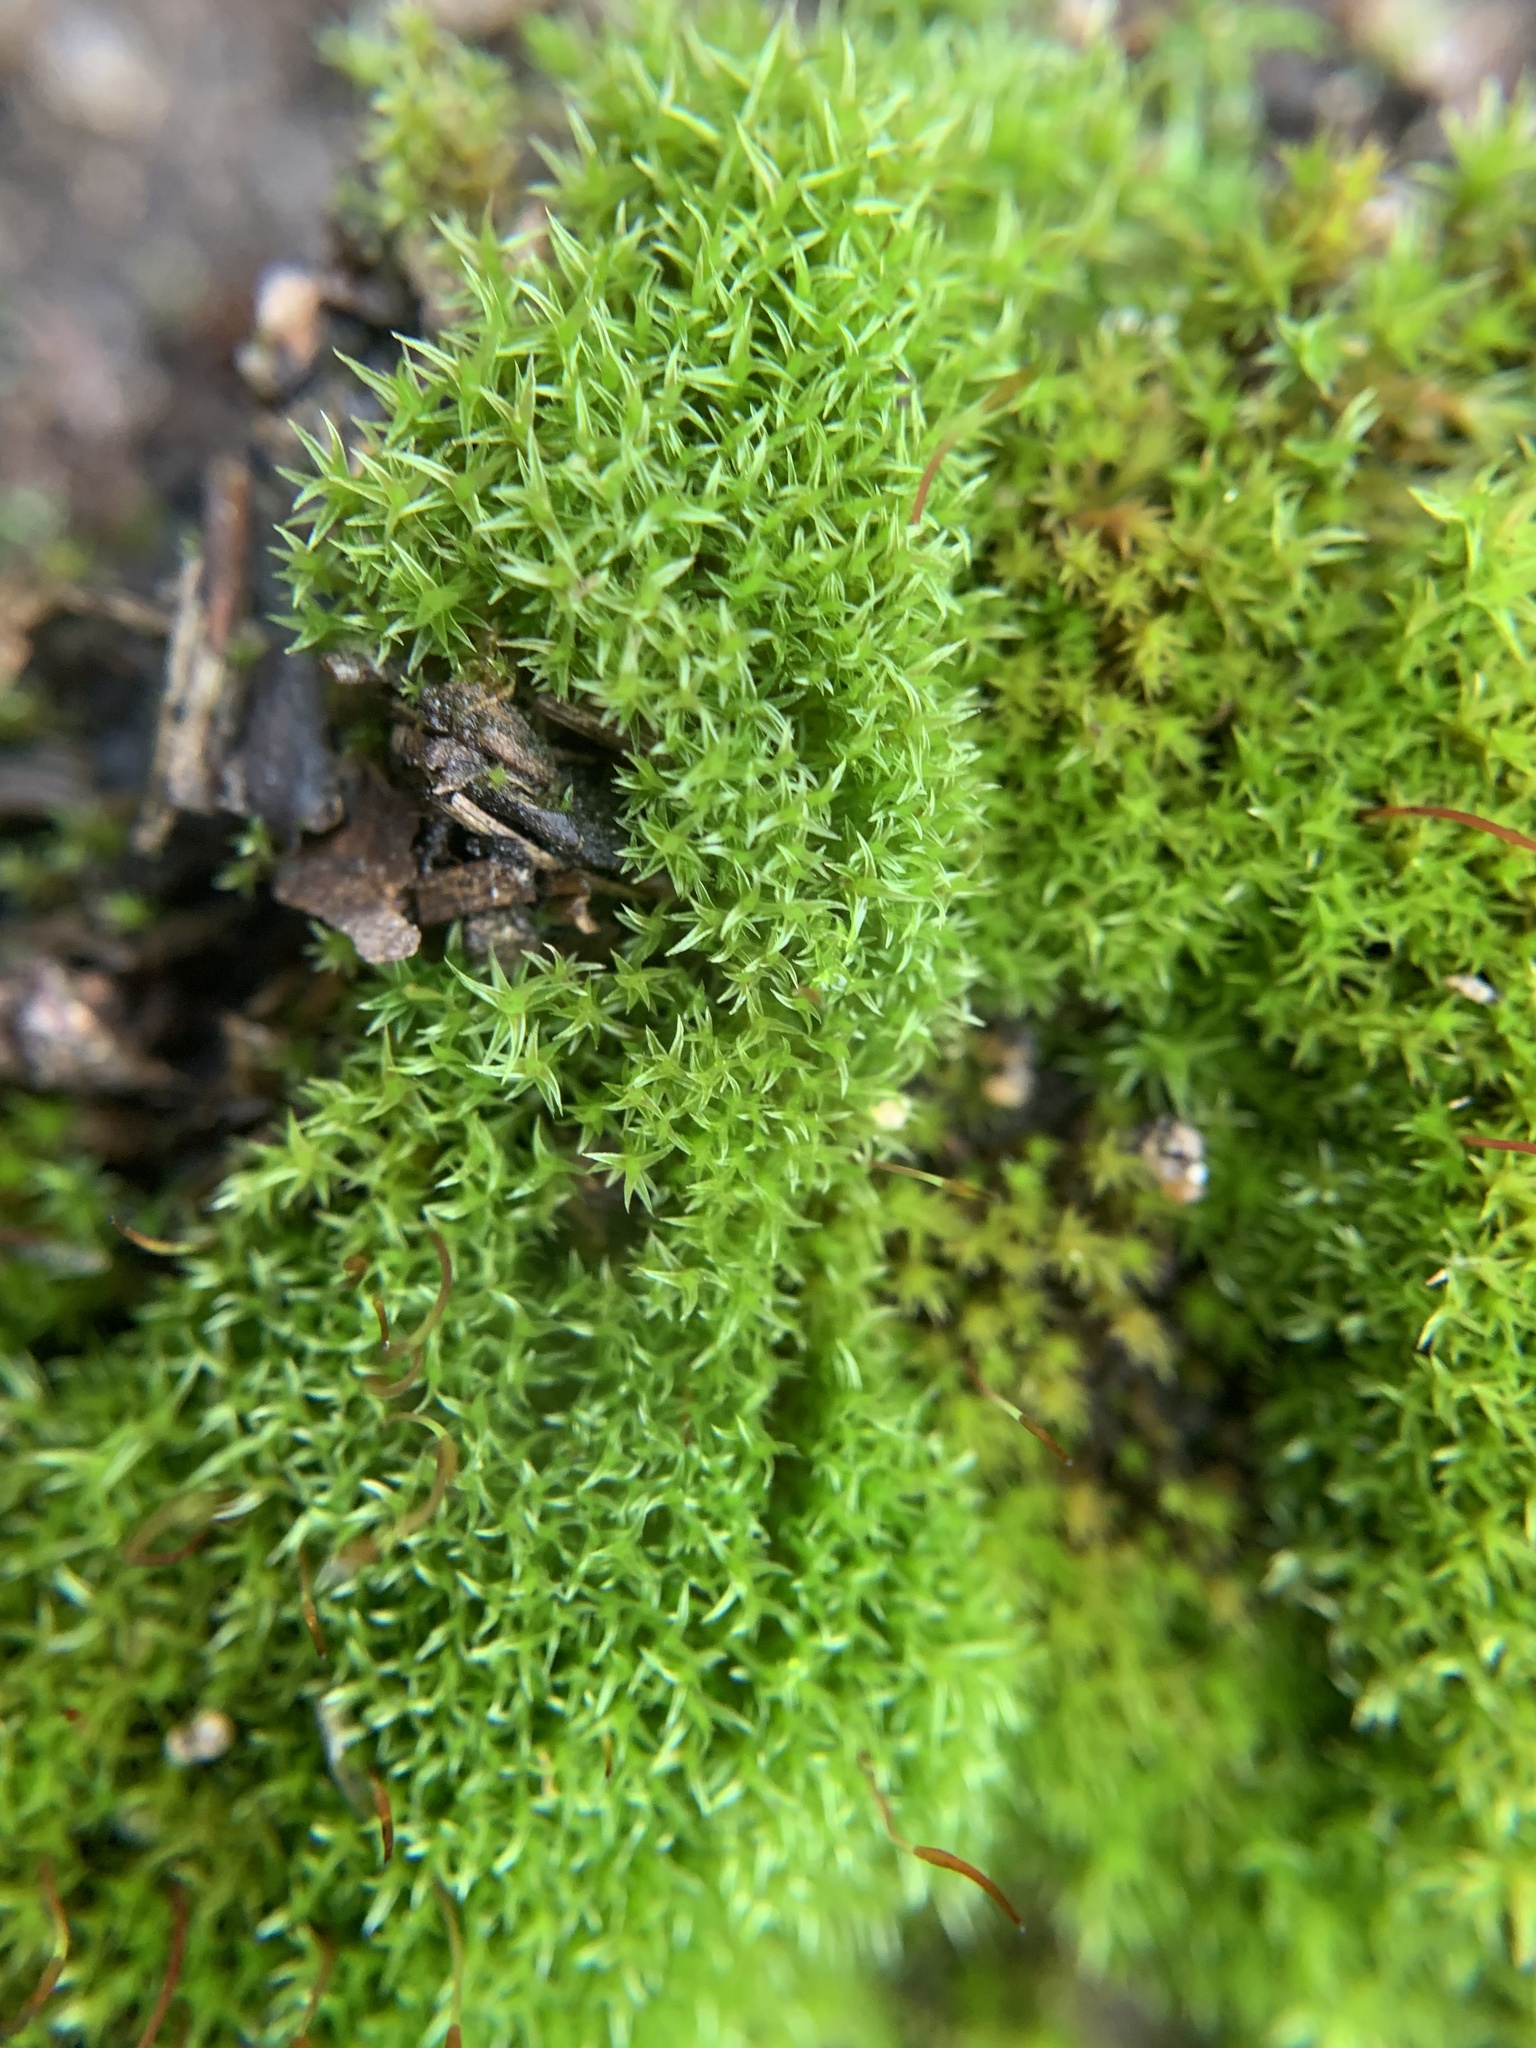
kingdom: Plantae
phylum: Bryophyta
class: Bryopsida
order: Dicranales
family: Ditrichaceae
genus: Ceratodon
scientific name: Ceratodon purpureus
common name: Redshank
